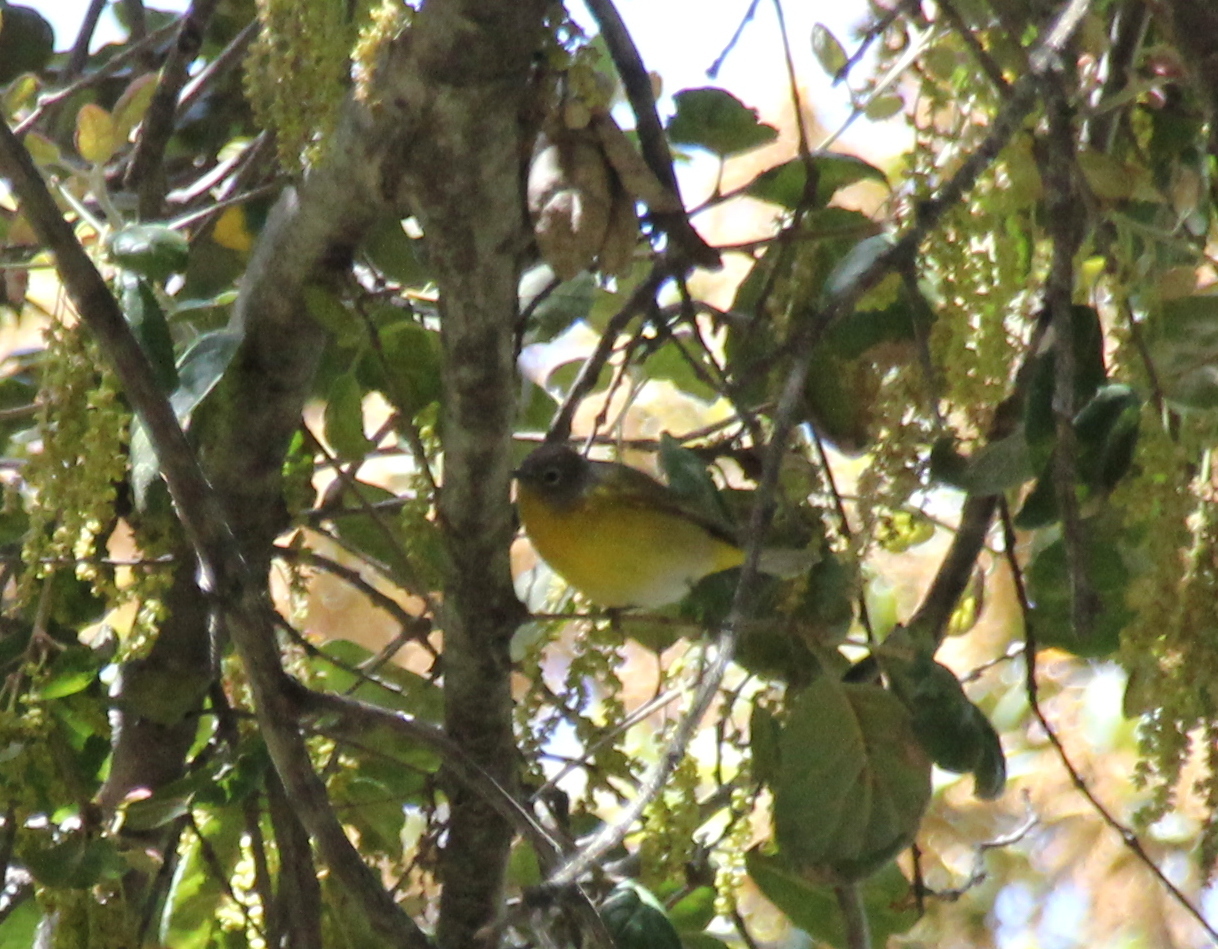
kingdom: Animalia
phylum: Chordata
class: Aves
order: Passeriformes
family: Parulidae
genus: Leiothlypis
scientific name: Leiothlypis ruficapilla
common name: Nashville warbler
